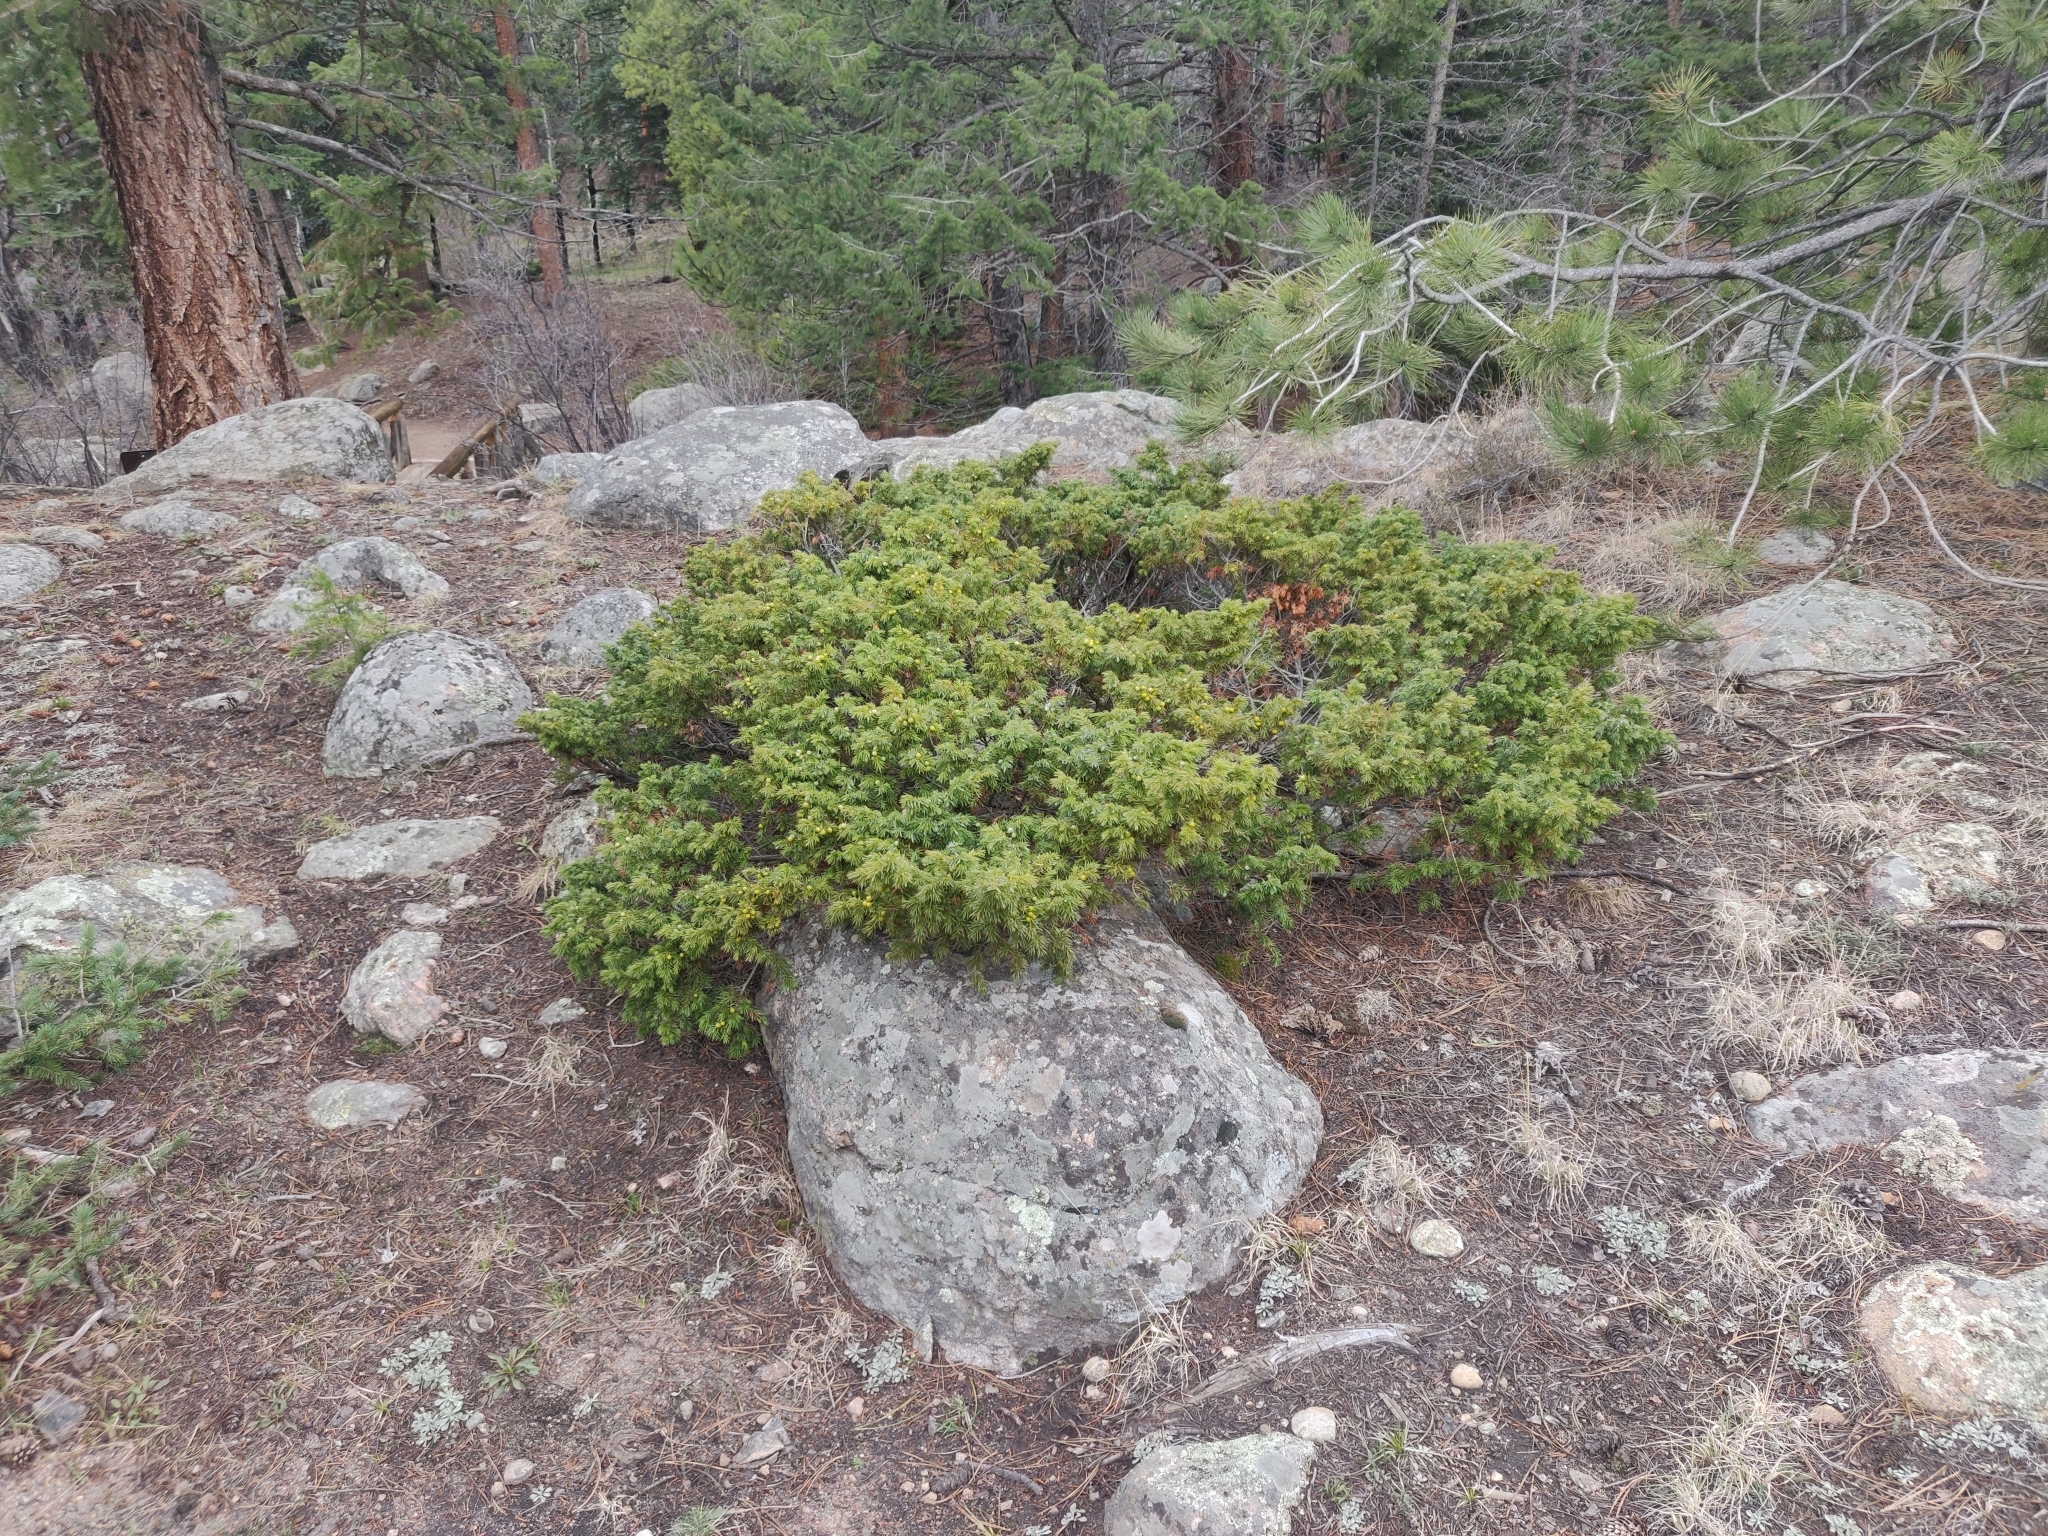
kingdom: Plantae
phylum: Tracheophyta
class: Pinopsida
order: Pinales
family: Cupressaceae
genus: Juniperus
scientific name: Juniperus communis
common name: Common juniper
